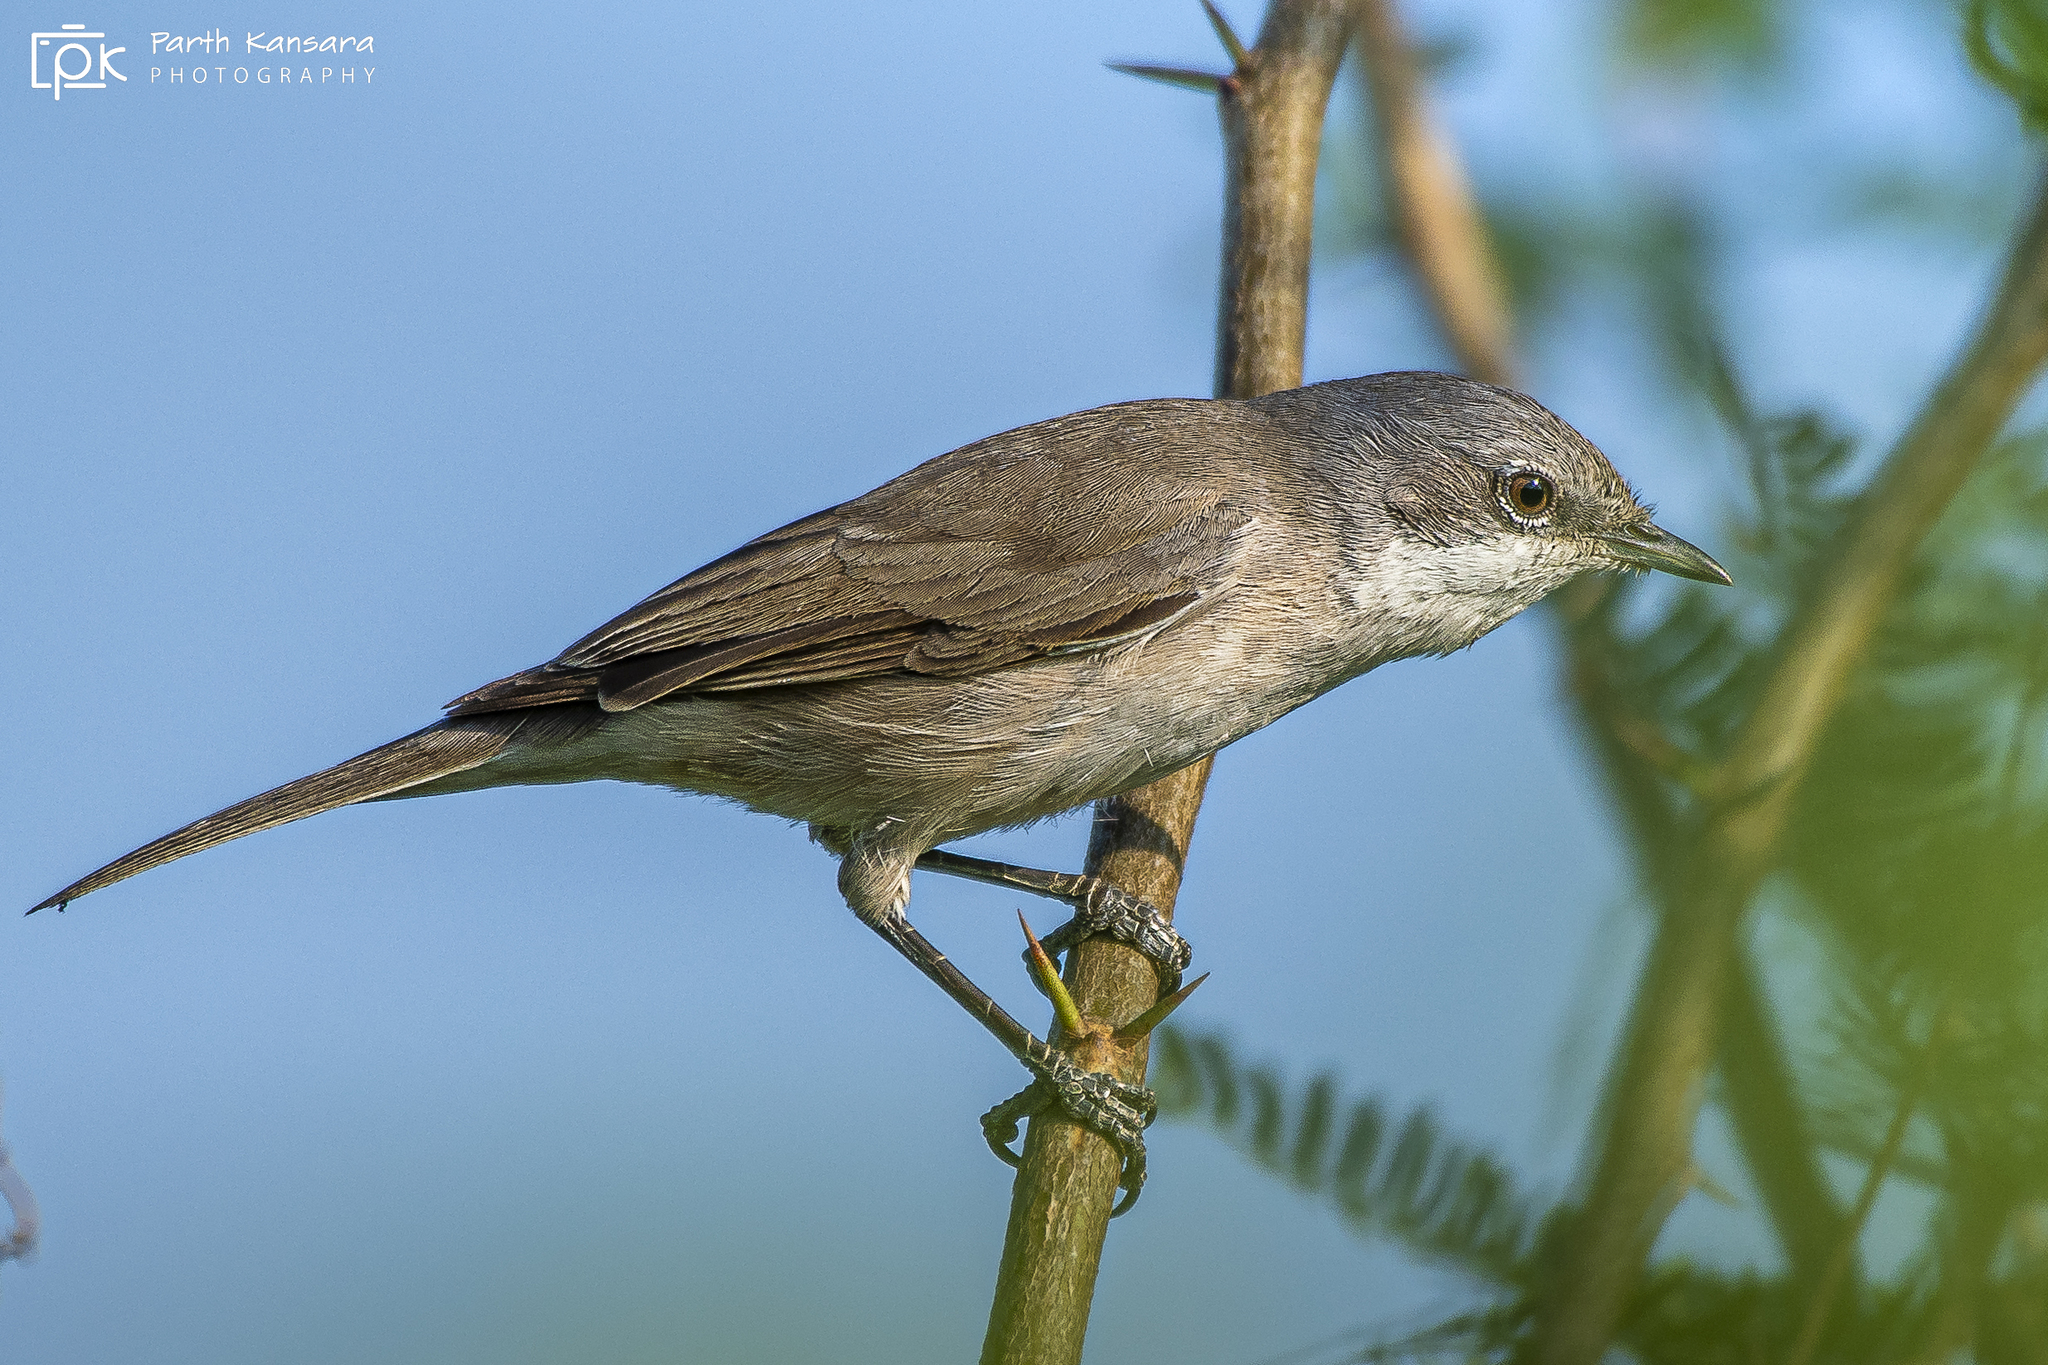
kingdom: Animalia
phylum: Chordata
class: Aves
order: Passeriformes
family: Sylviidae
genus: Sylvia
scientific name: Sylvia curruca
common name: Lesser whitethroat
